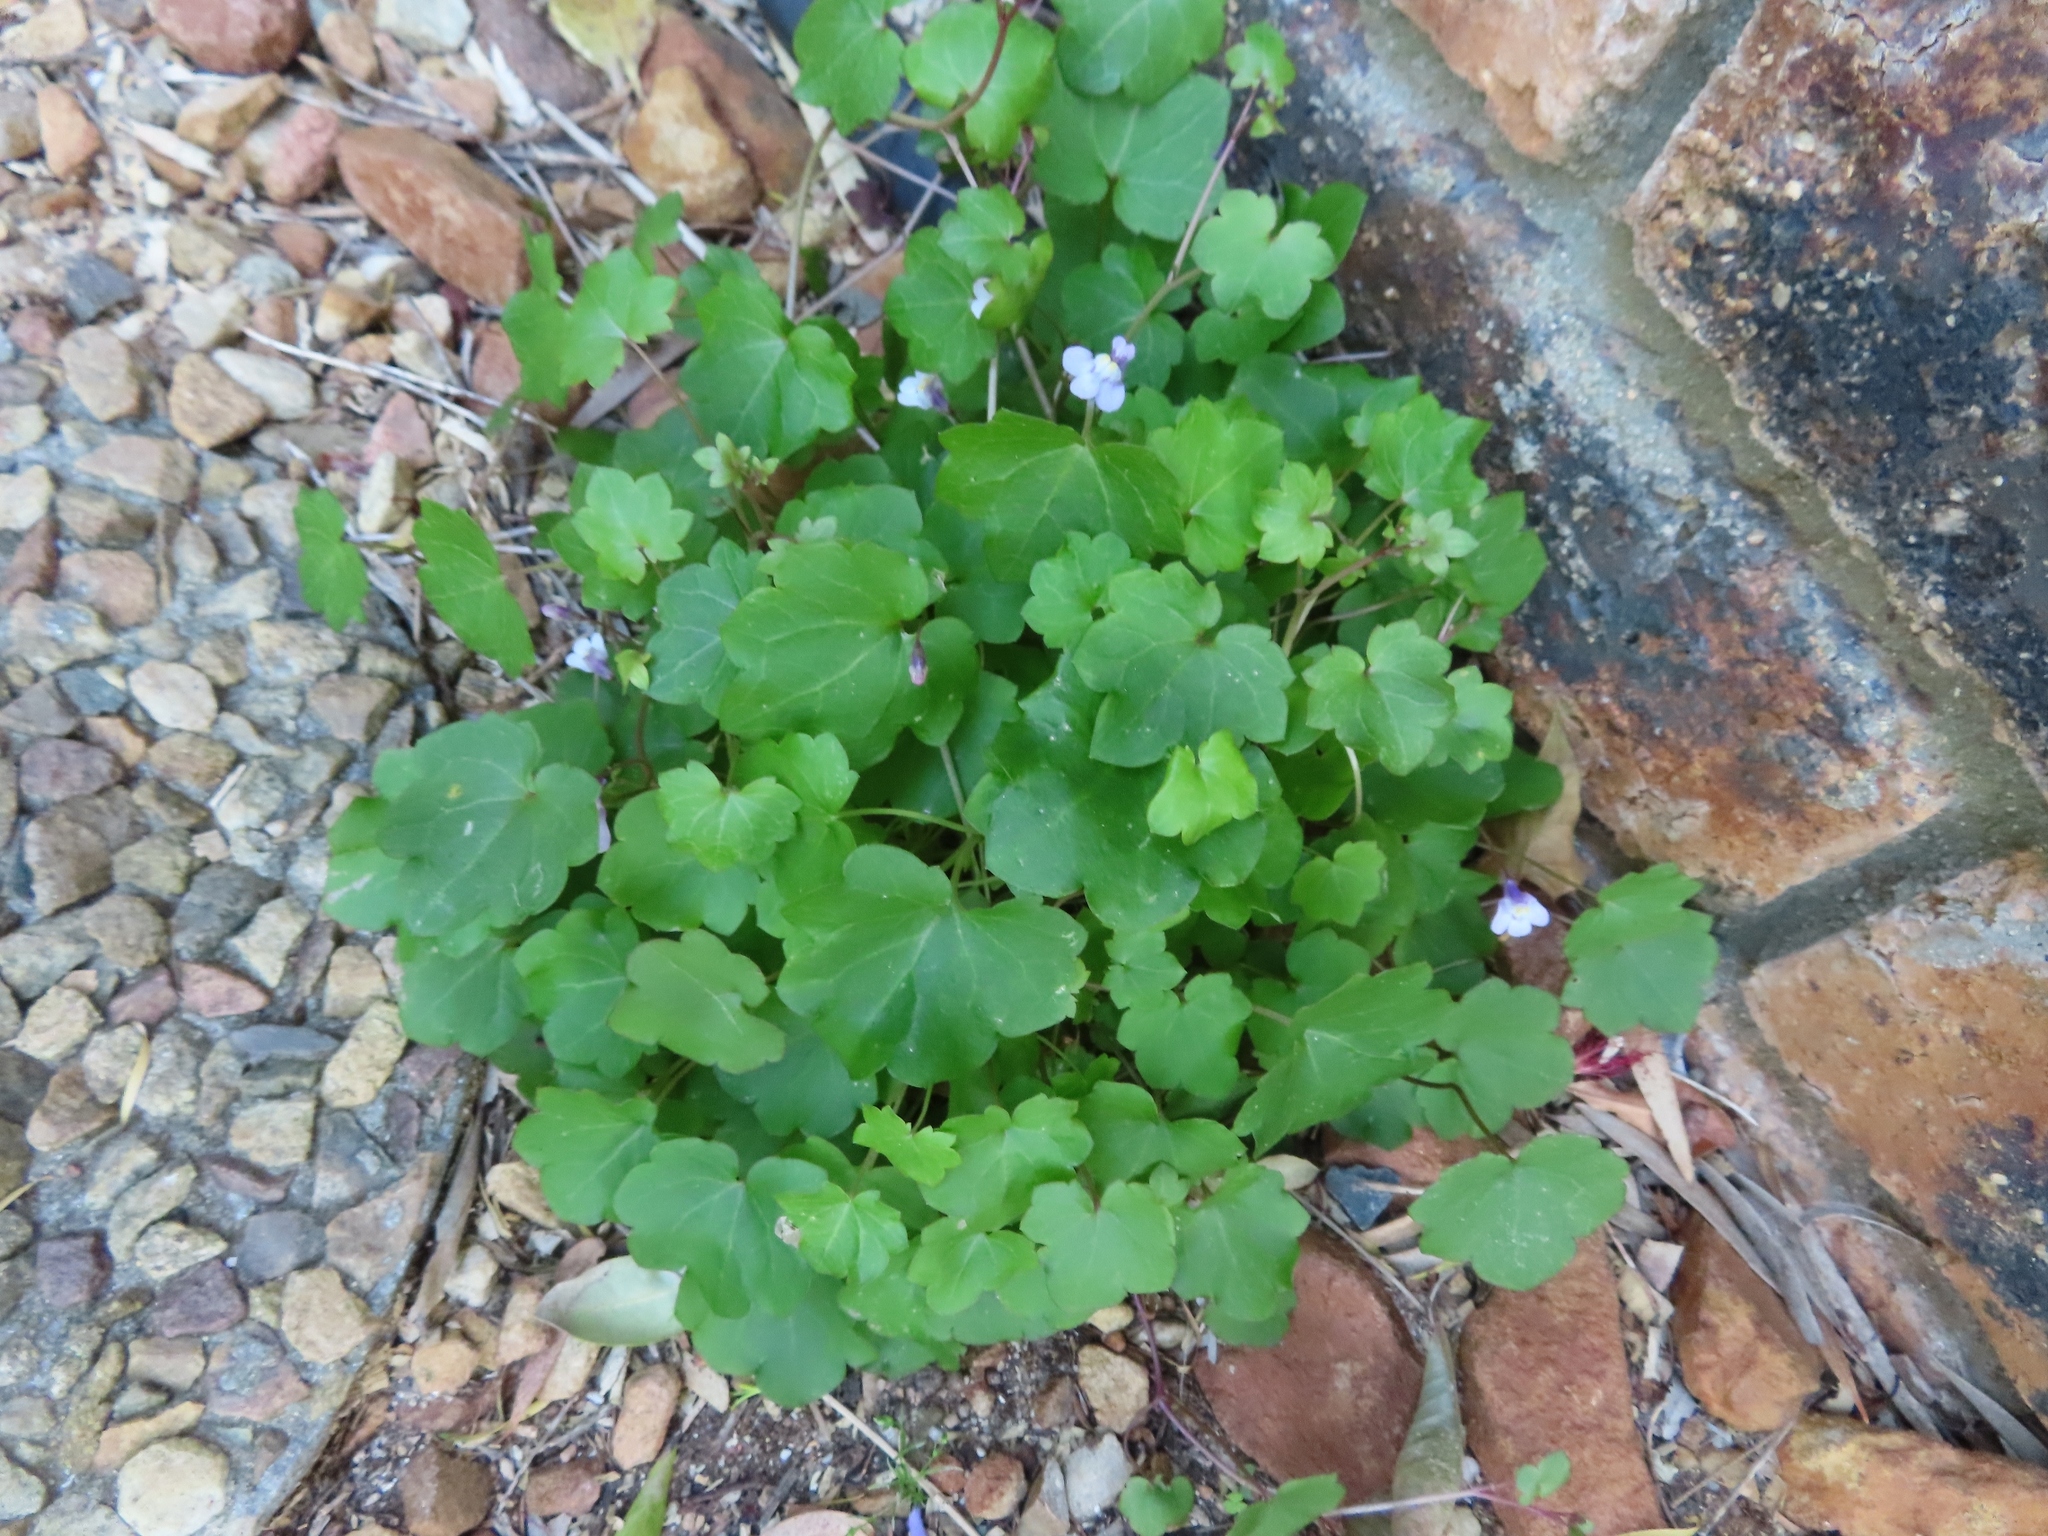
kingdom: Plantae
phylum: Tracheophyta
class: Magnoliopsida
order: Lamiales
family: Plantaginaceae
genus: Cymbalaria
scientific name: Cymbalaria muralis
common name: Ivy-leaved toadflax
